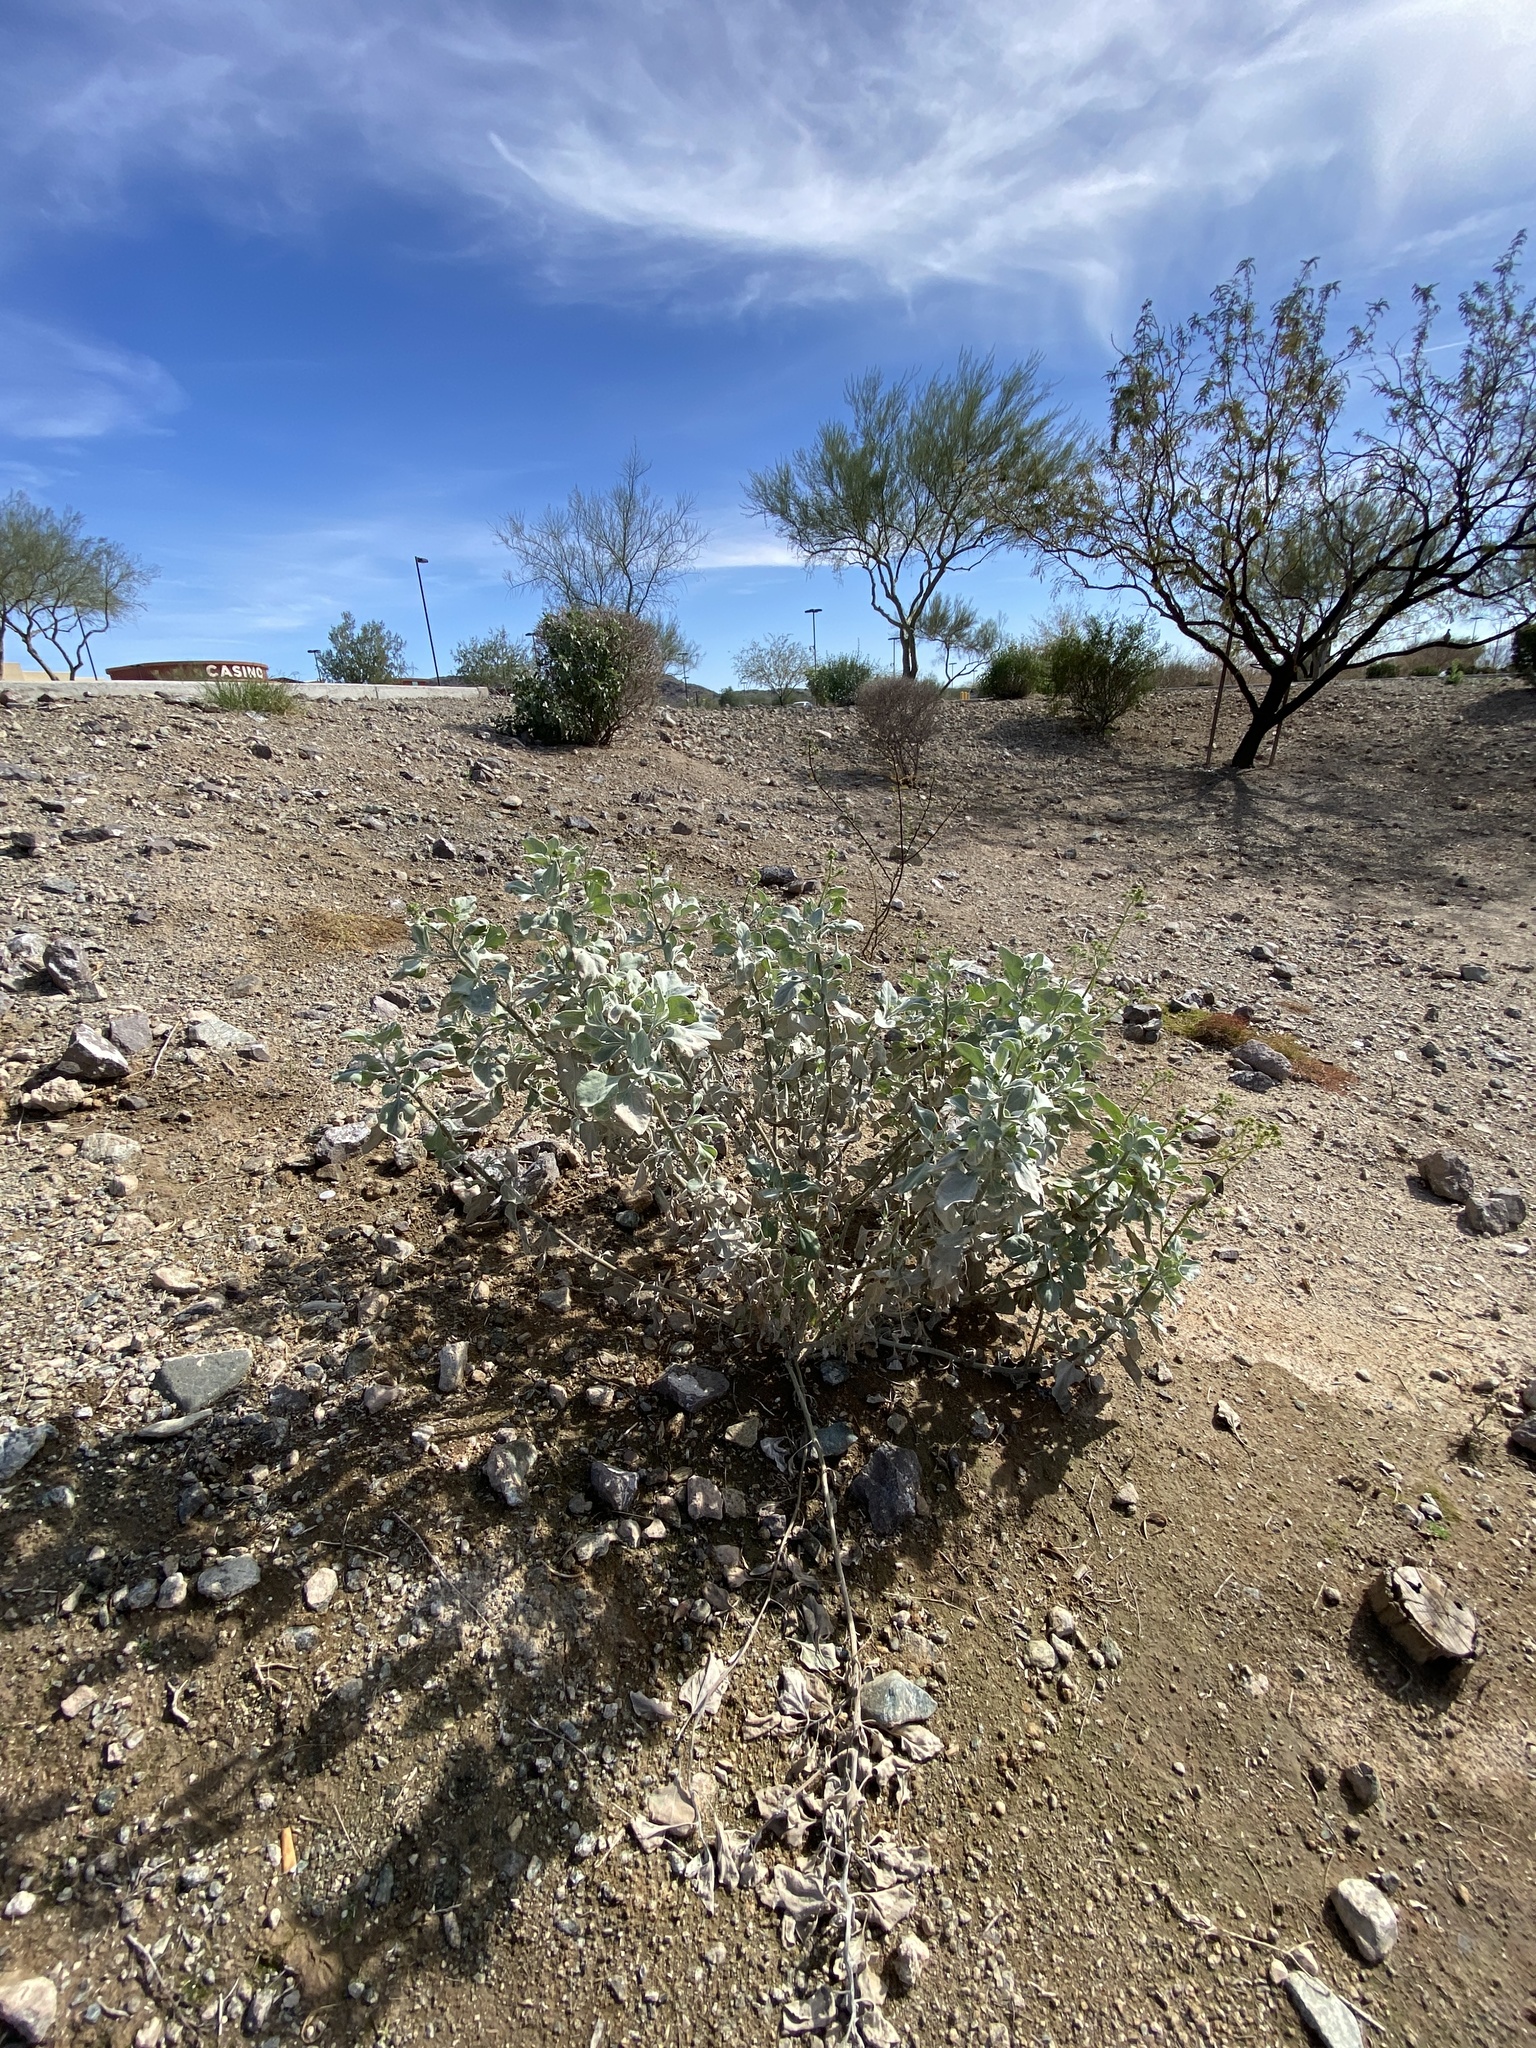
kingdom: Plantae
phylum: Tracheophyta
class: Magnoliopsida
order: Asterales
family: Asteraceae
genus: Encelia
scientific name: Encelia farinosa
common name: Brittlebush
